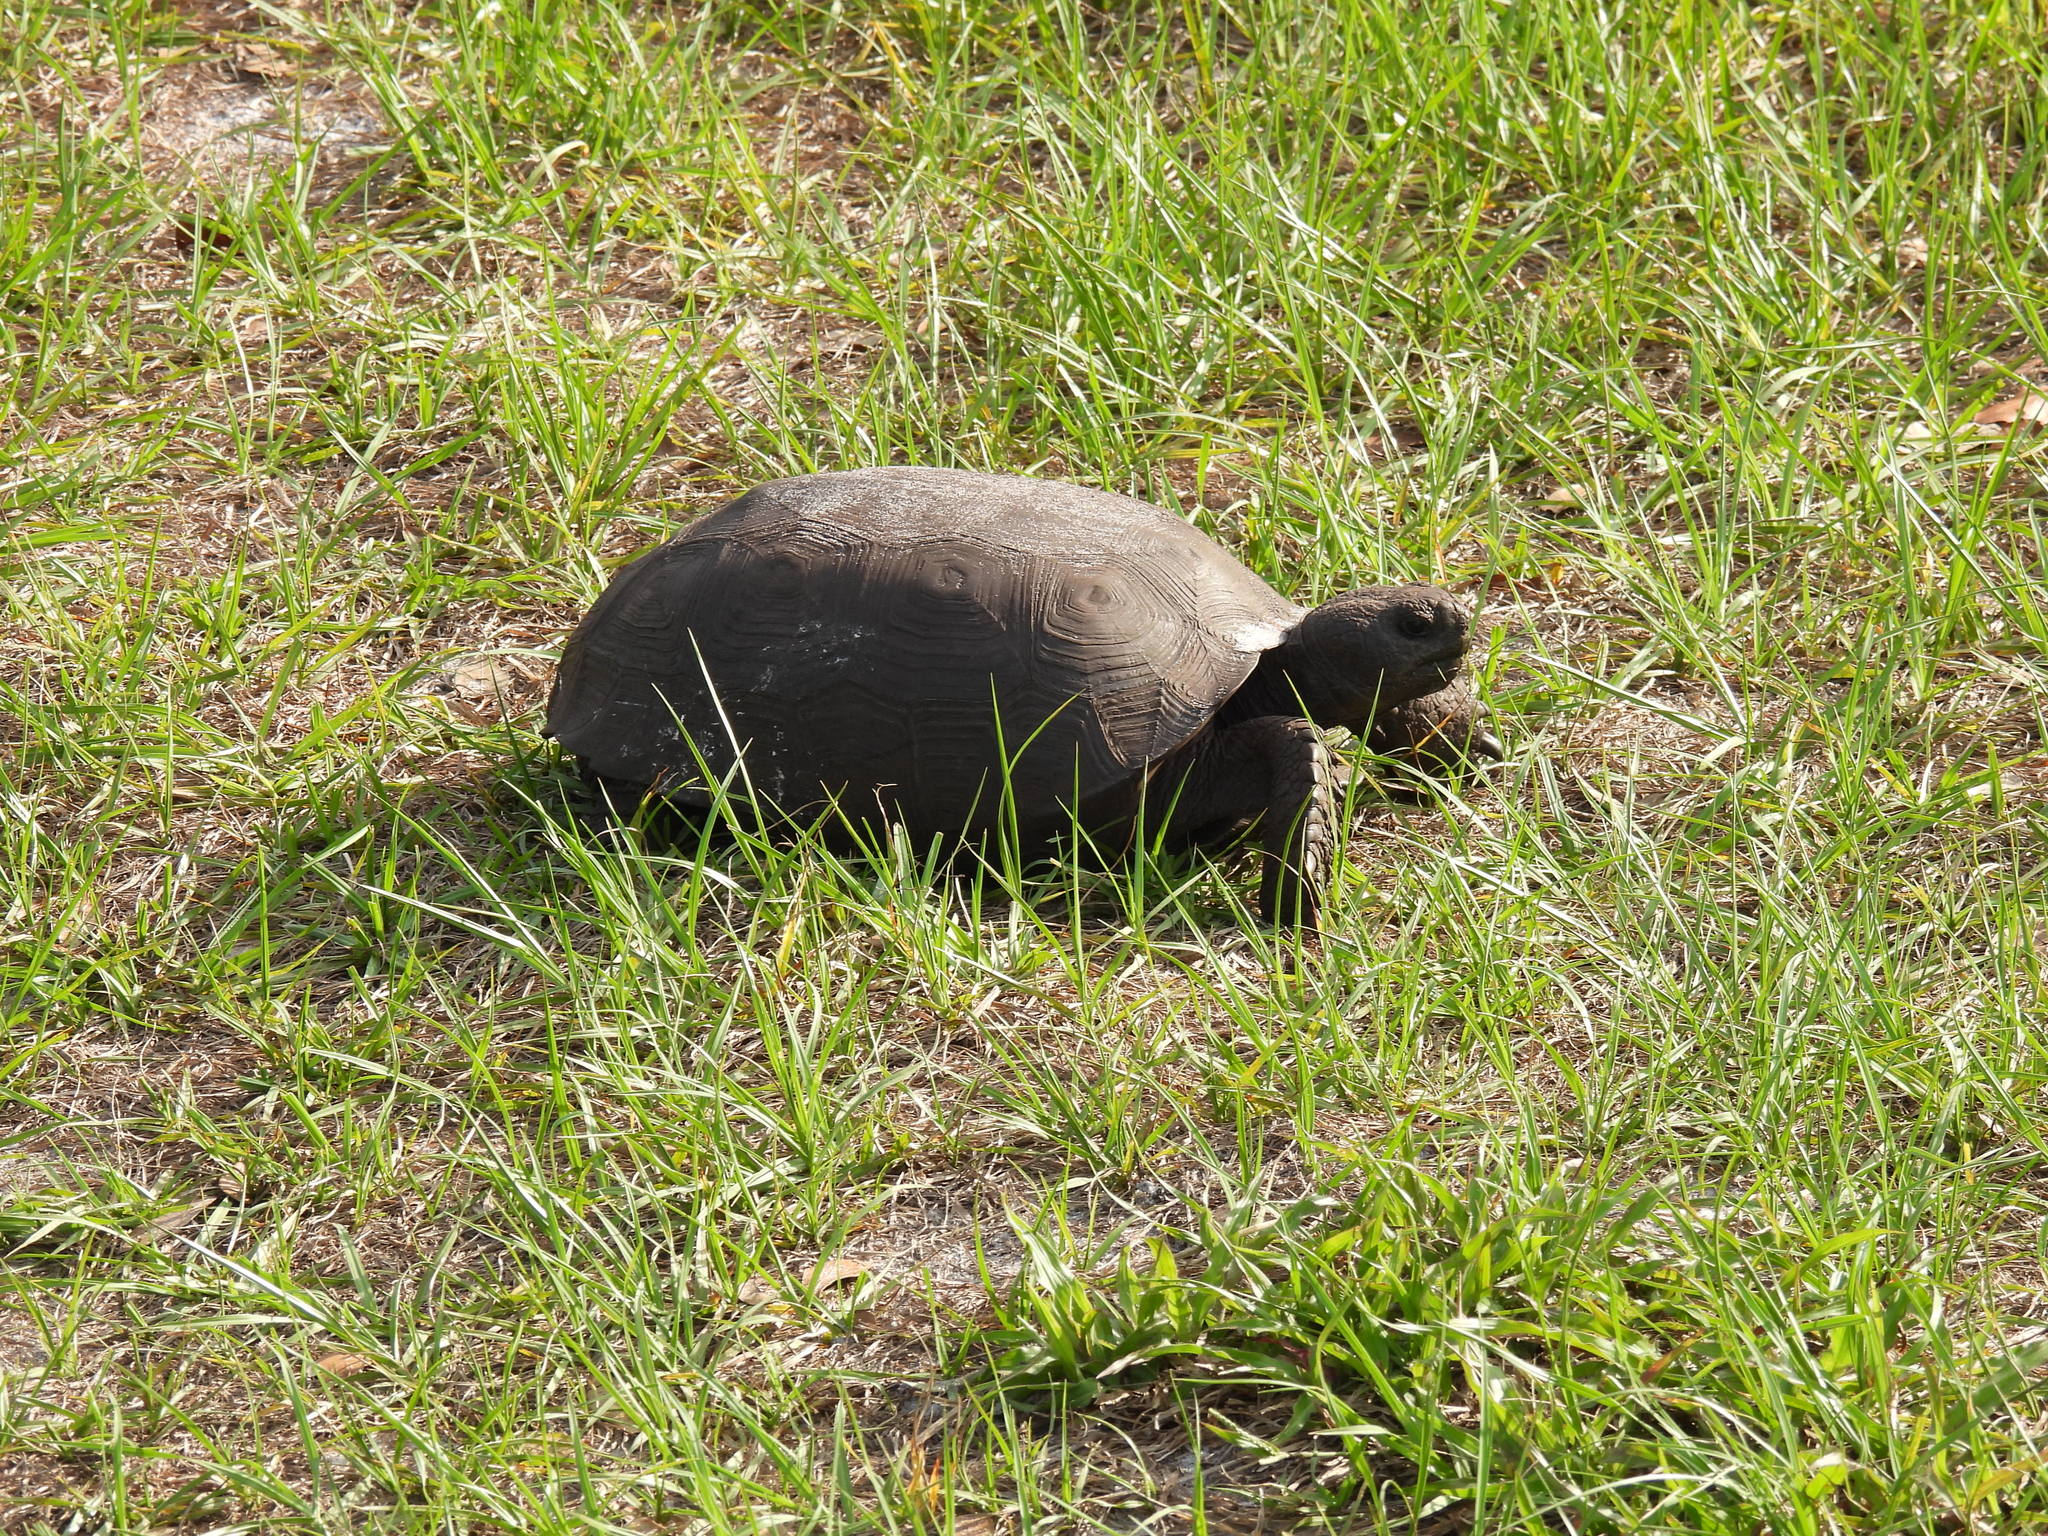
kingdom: Animalia
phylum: Chordata
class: Testudines
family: Testudinidae
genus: Gopherus
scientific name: Gopherus polyphemus
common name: Florida gopher tortoise
